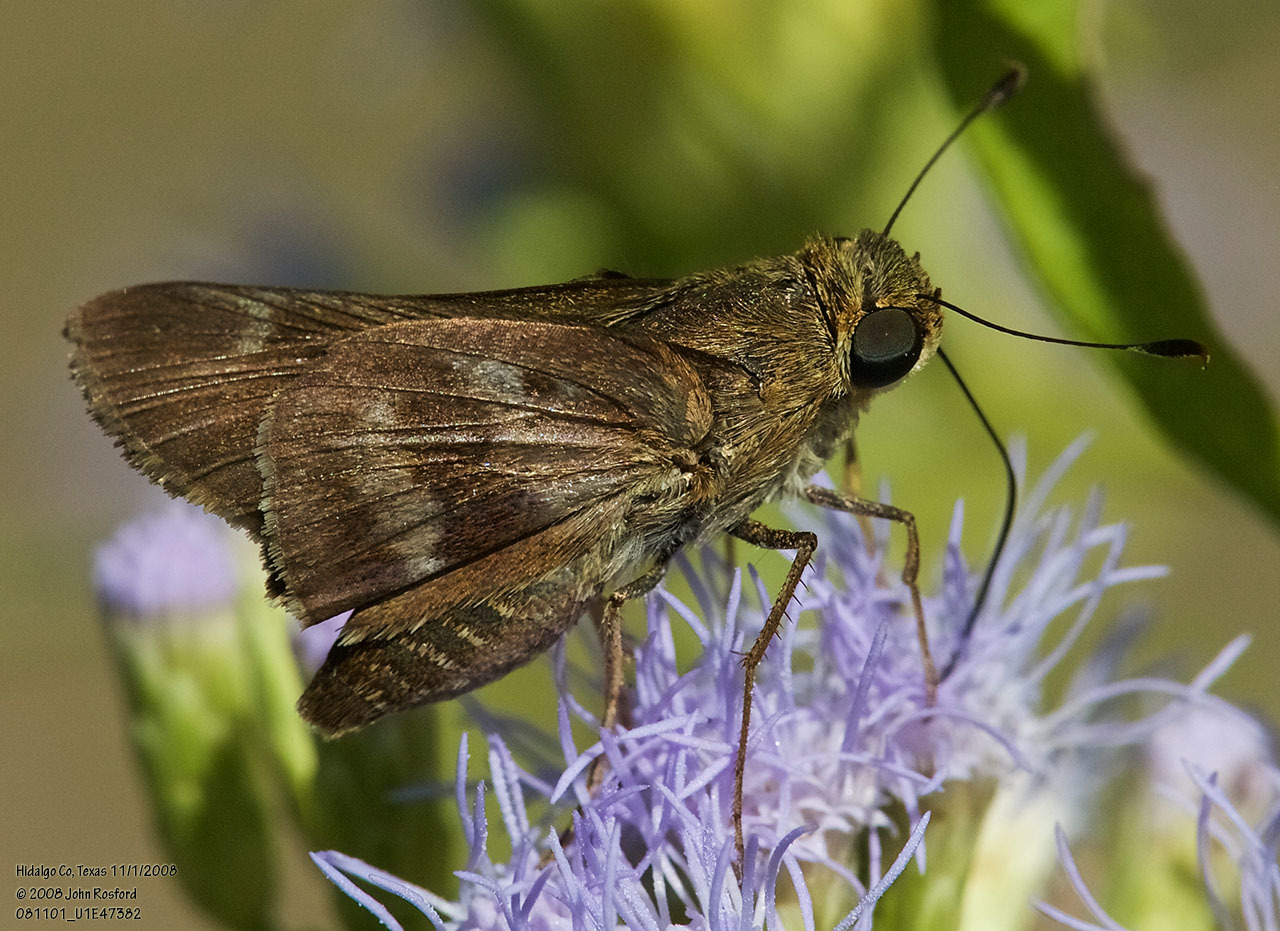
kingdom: Animalia
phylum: Arthropoda
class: Insecta
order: Lepidoptera
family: Hesperiidae
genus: Nyctelius
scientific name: Nyctelius nyctelius
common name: Violet-banded skipper
